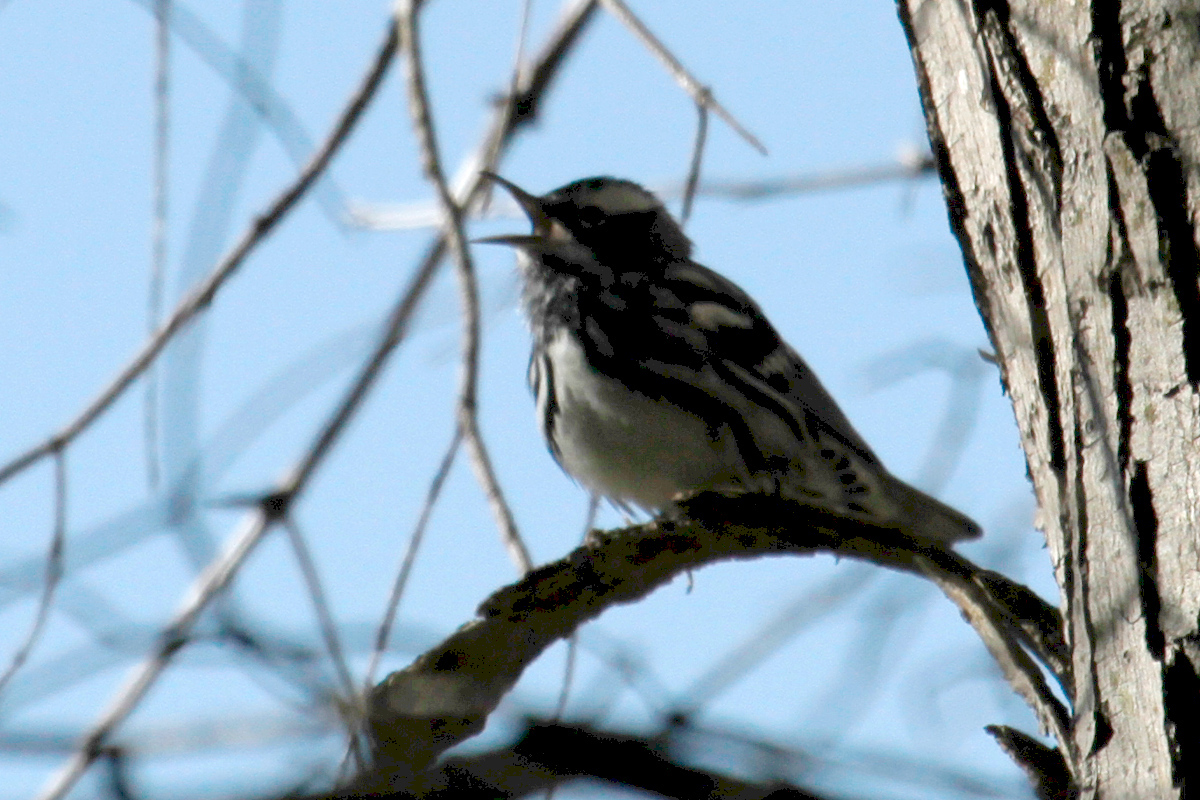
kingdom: Animalia
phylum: Chordata
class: Aves
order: Passeriformes
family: Parulidae
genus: Mniotilta
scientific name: Mniotilta varia
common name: Black-and-white warbler
